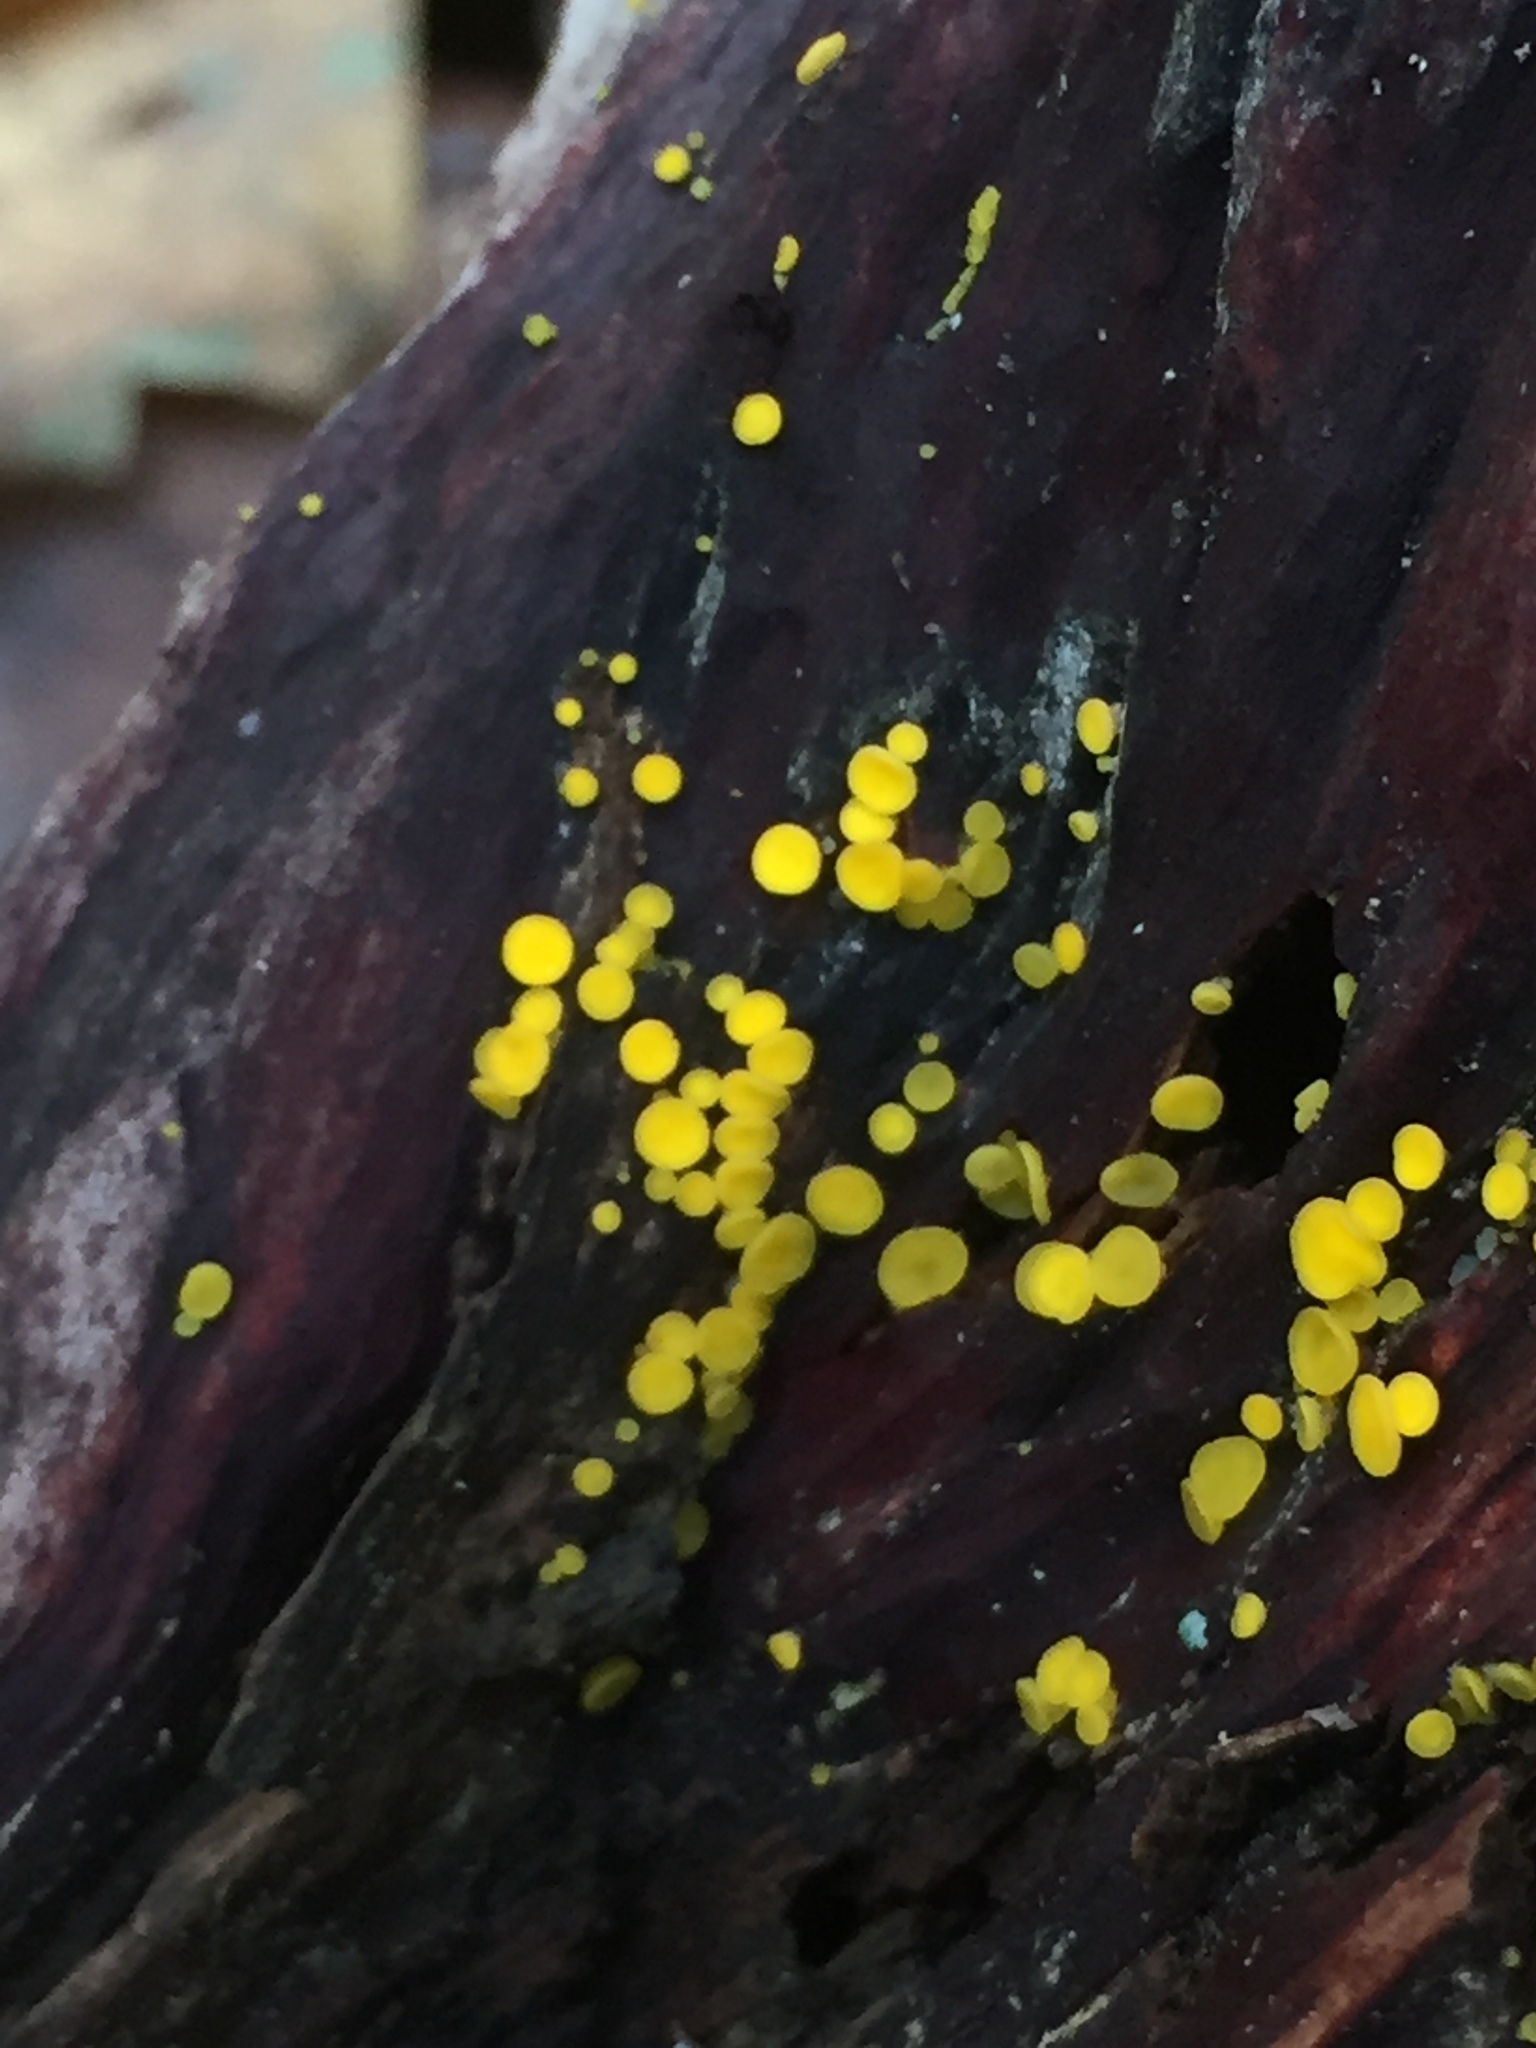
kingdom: Fungi
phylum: Ascomycota
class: Leotiomycetes
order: Helotiales
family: Pezizellaceae
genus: Calycina
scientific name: Calycina citrina
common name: Yellow fairy cups
